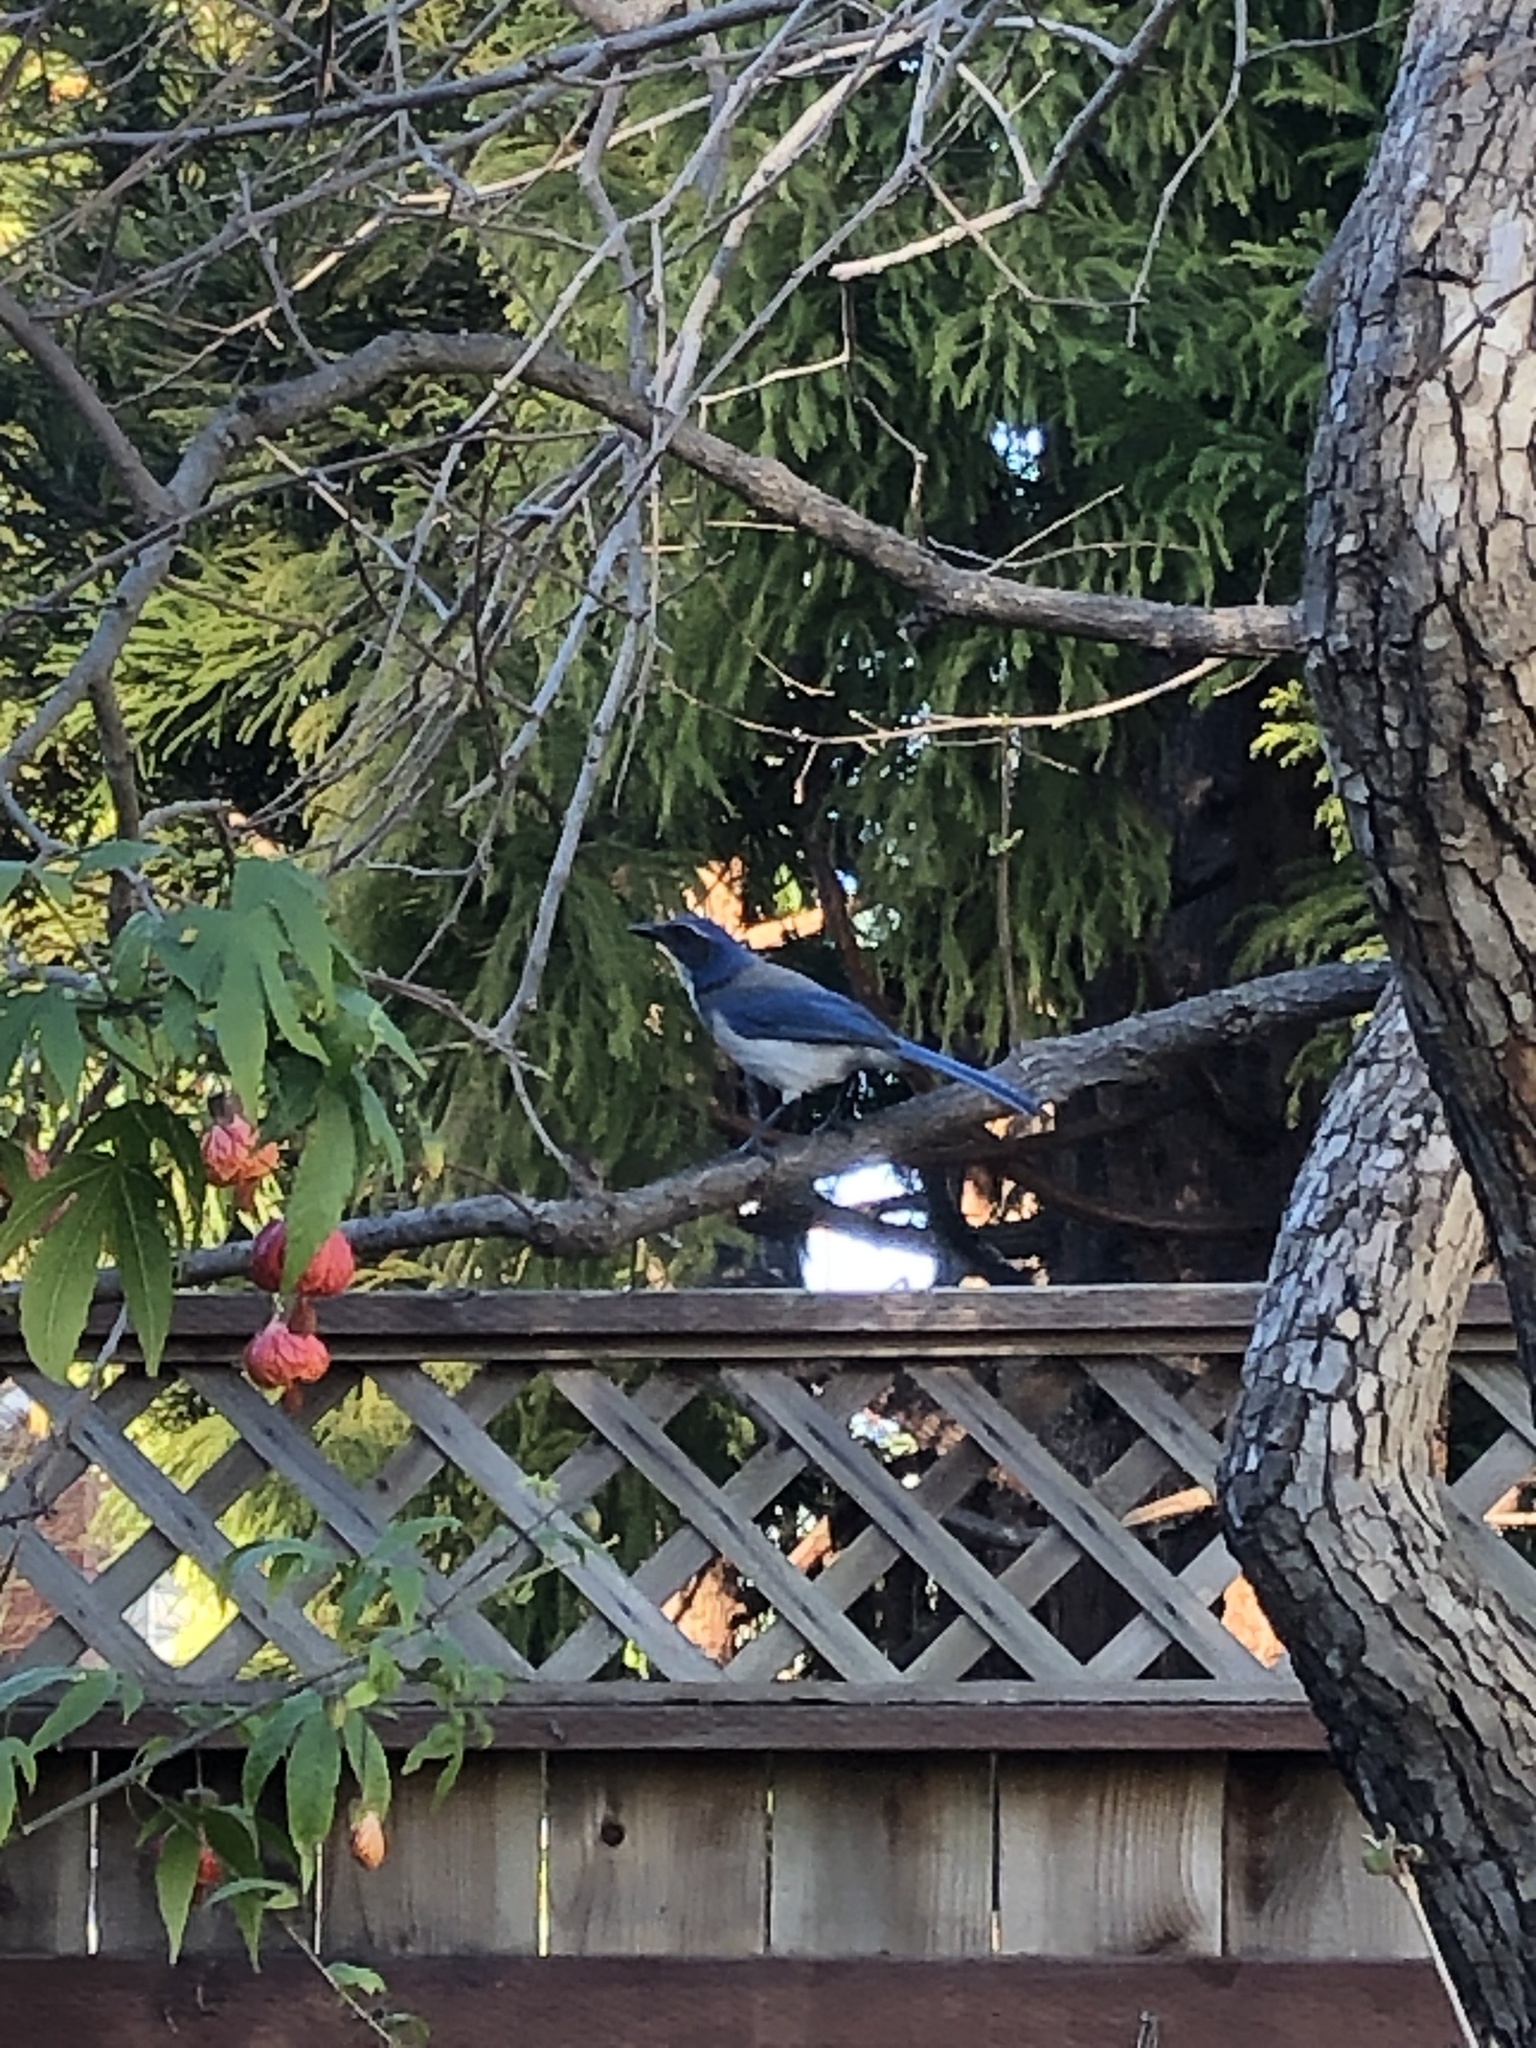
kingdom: Animalia
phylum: Chordata
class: Aves
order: Passeriformes
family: Corvidae
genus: Aphelocoma
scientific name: Aphelocoma californica
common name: California scrub-jay
